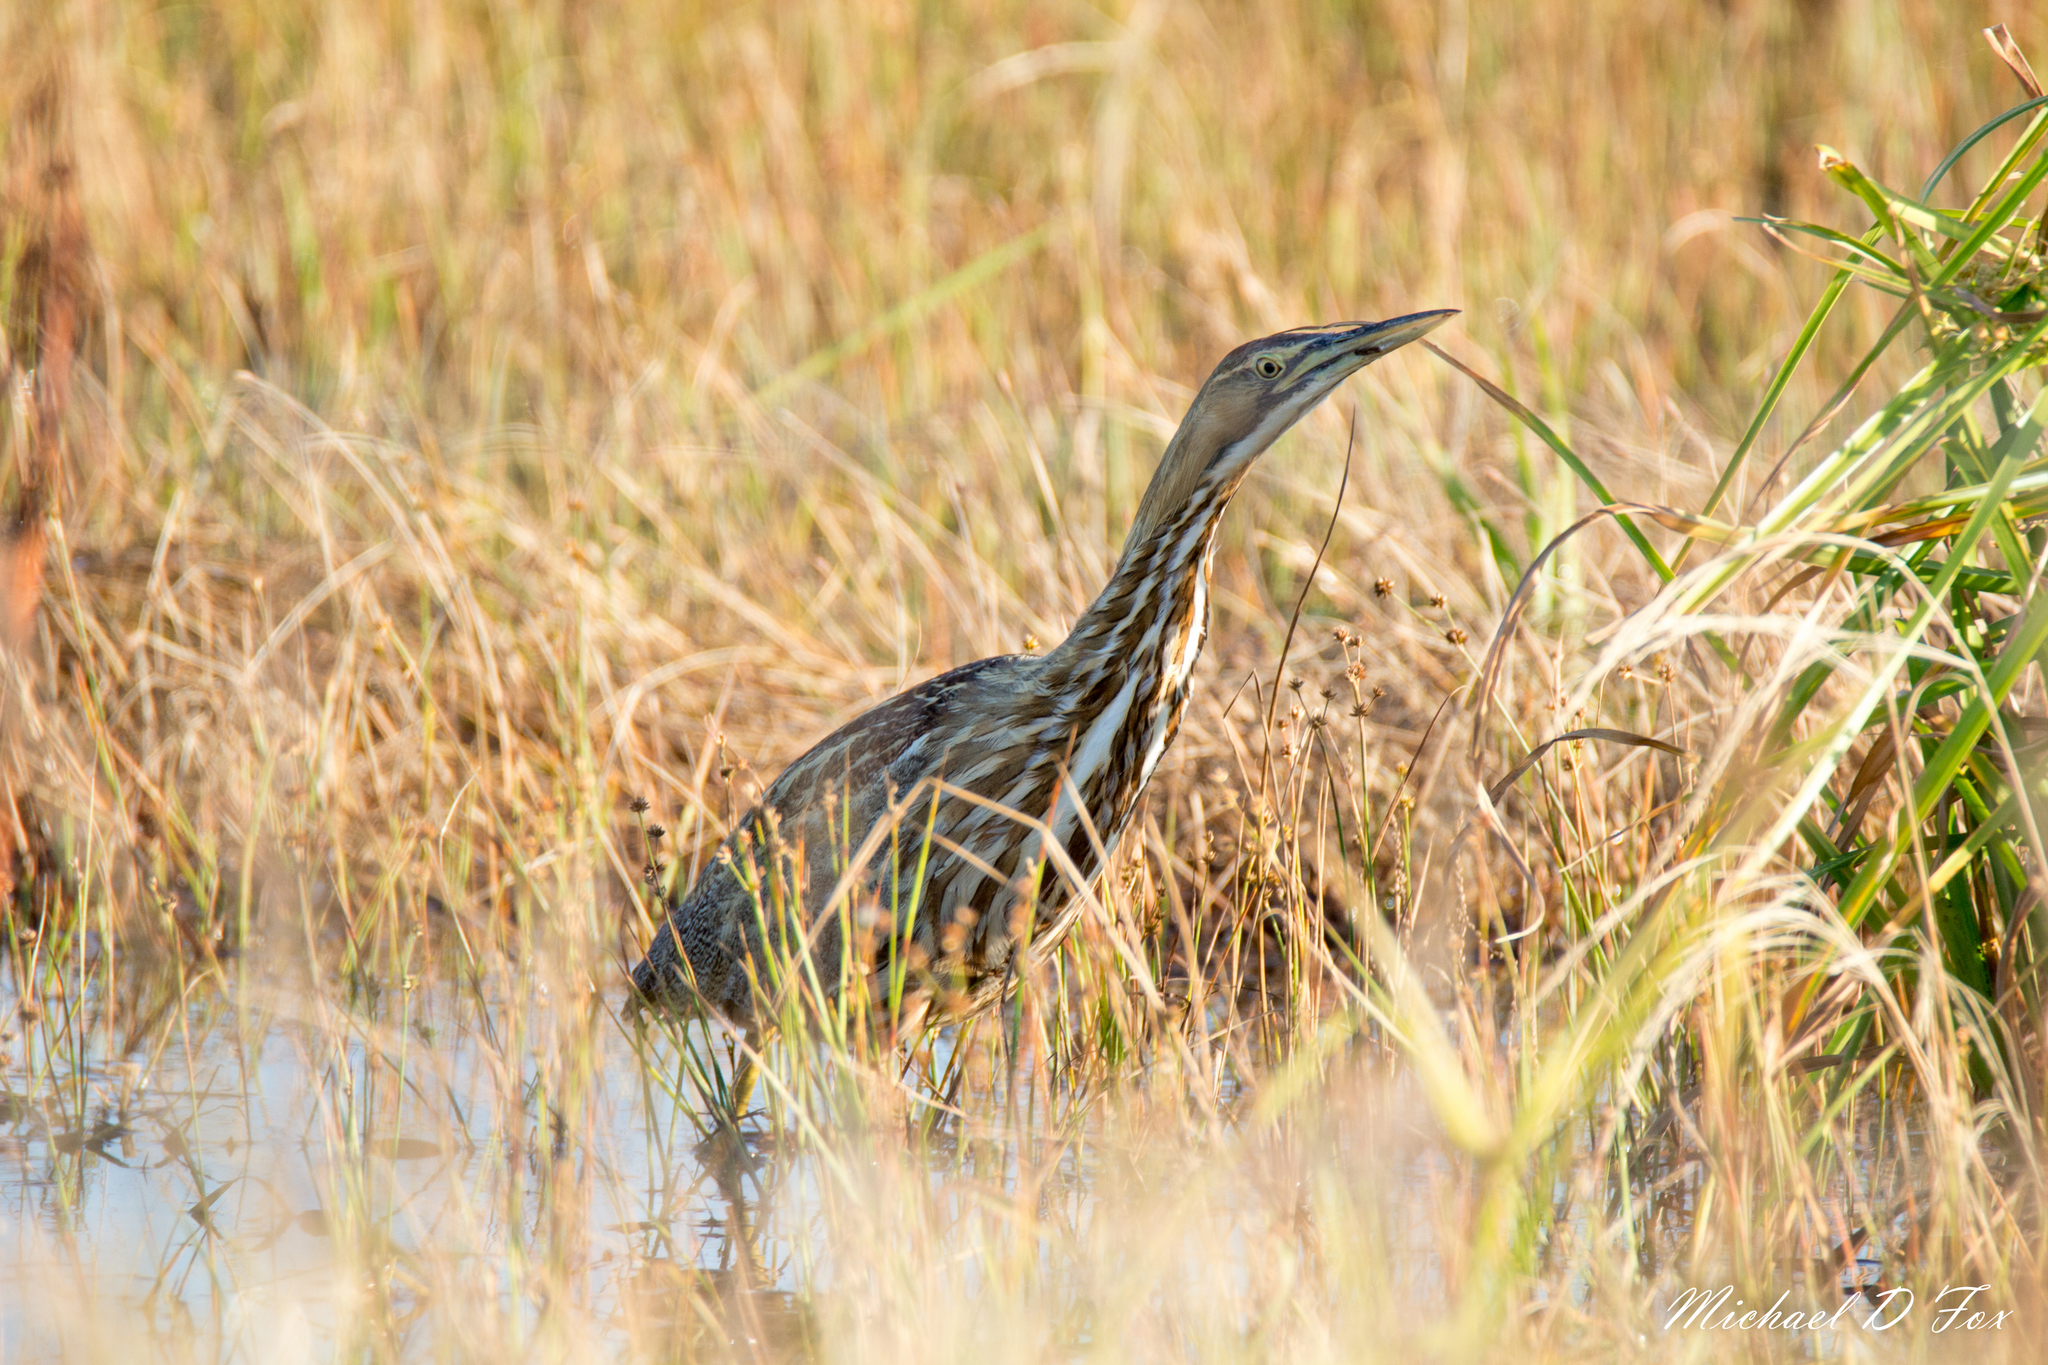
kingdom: Animalia
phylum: Chordata
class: Aves
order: Pelecaniformes
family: Ardeidae
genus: Botaurus
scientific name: Botaurus lentiginosus
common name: American bittern
